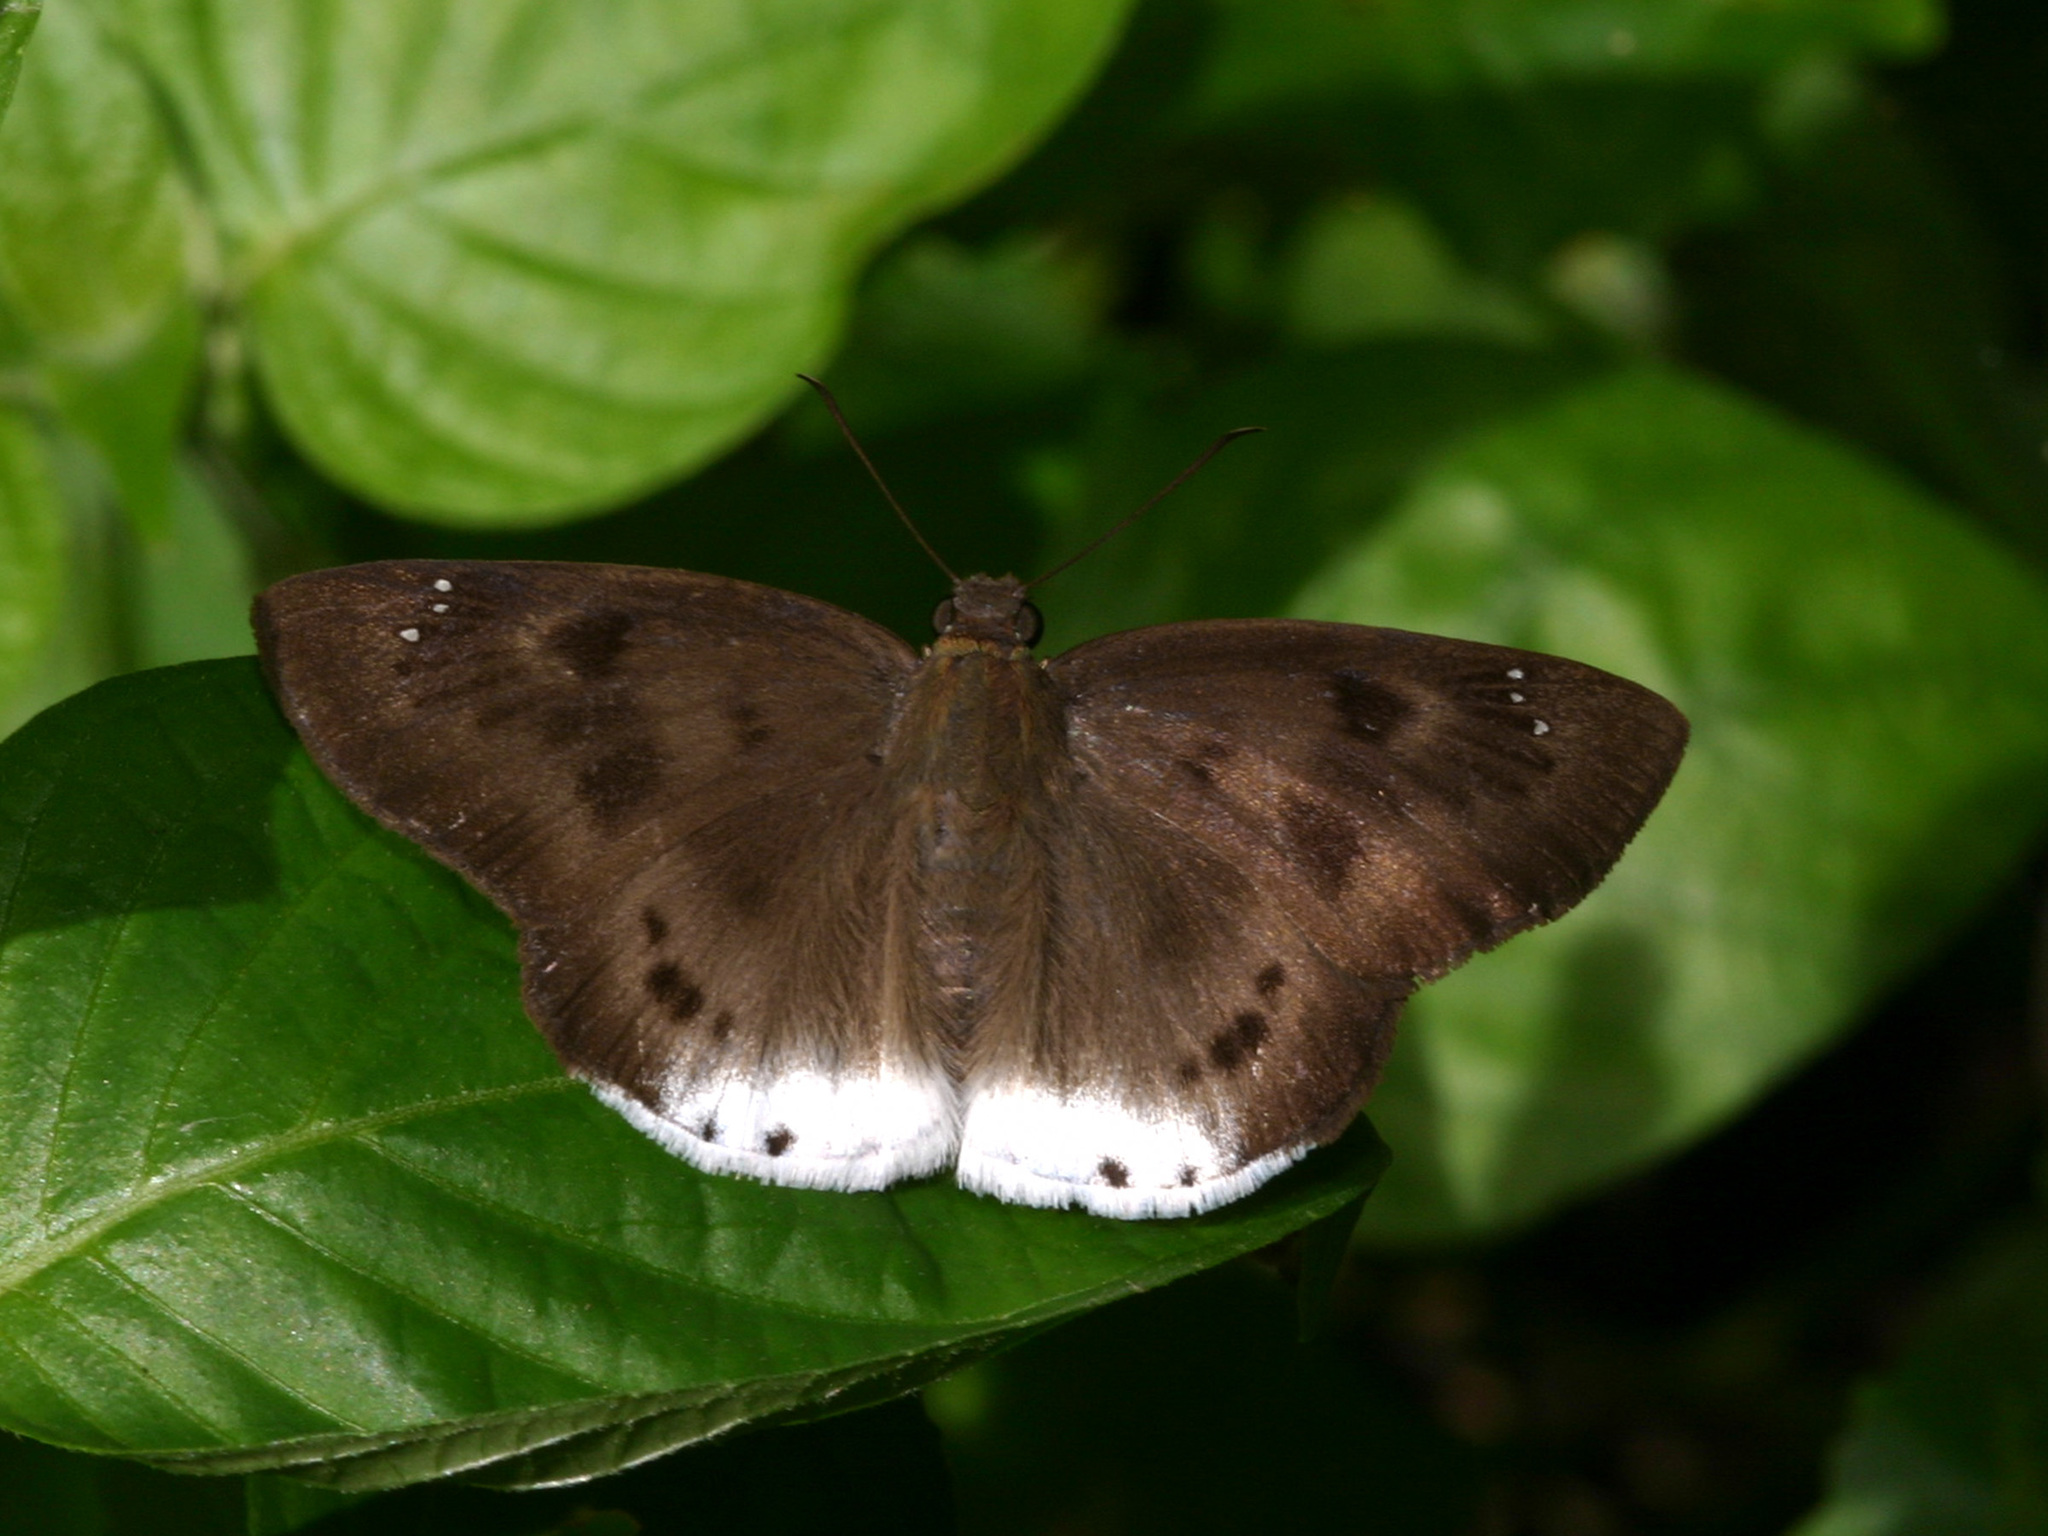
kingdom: Animalia
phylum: Arthropoda
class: Insecta
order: Lepidoptera
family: Hesperiidae
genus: Tagiades
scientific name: Tagiades gana
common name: Suffused snow flat
